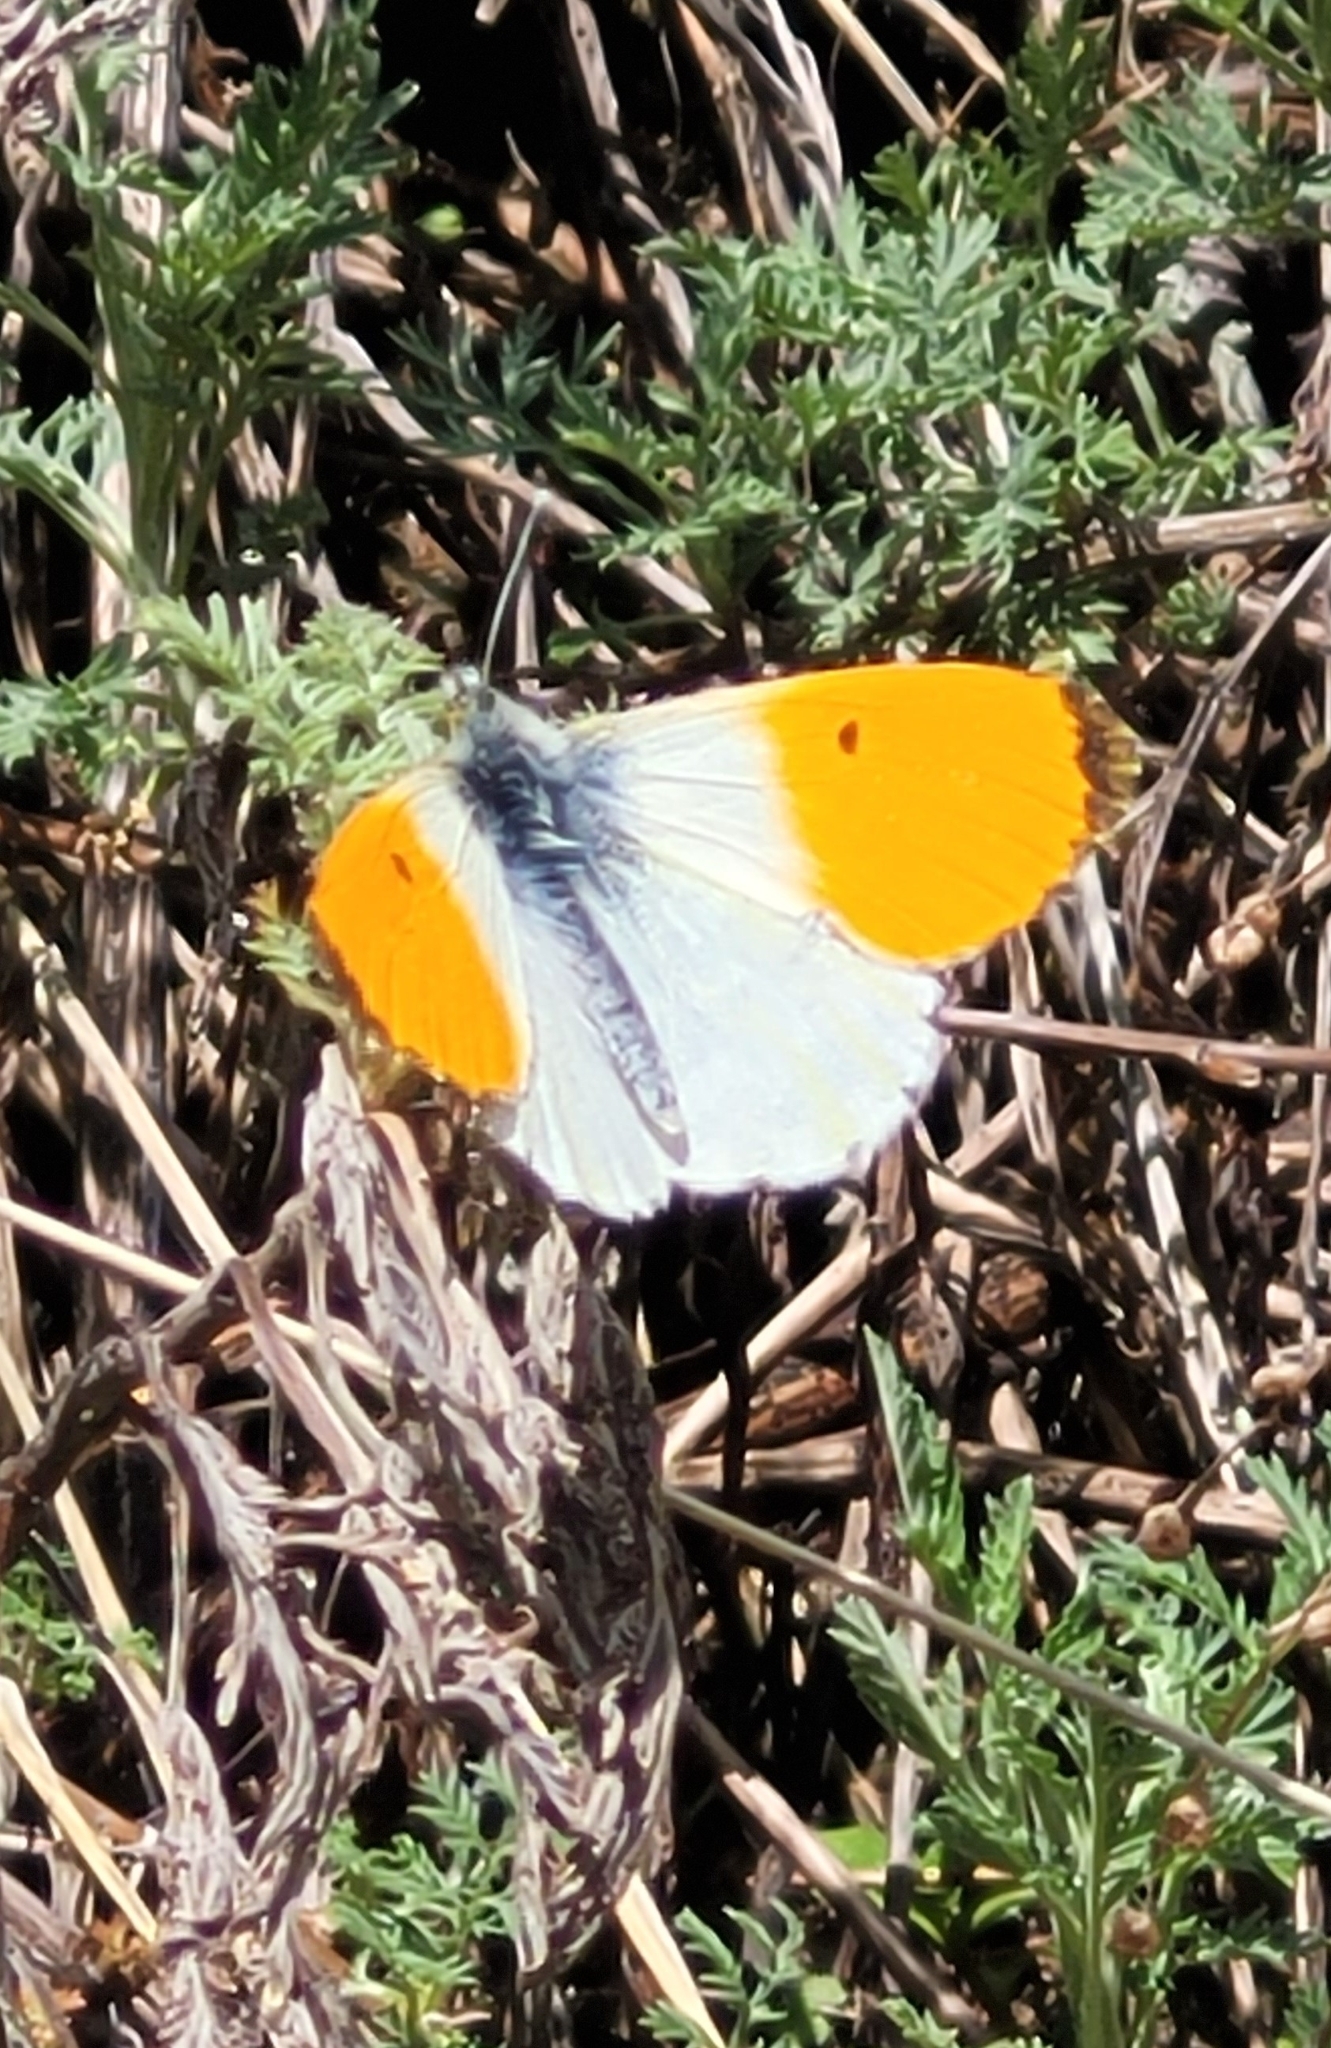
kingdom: Animalia
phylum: Arthropoda
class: Insecta
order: Lepidoptera
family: Pieridae
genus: Anthocharis
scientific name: Anthocharis cardamines
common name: Orange-tip
